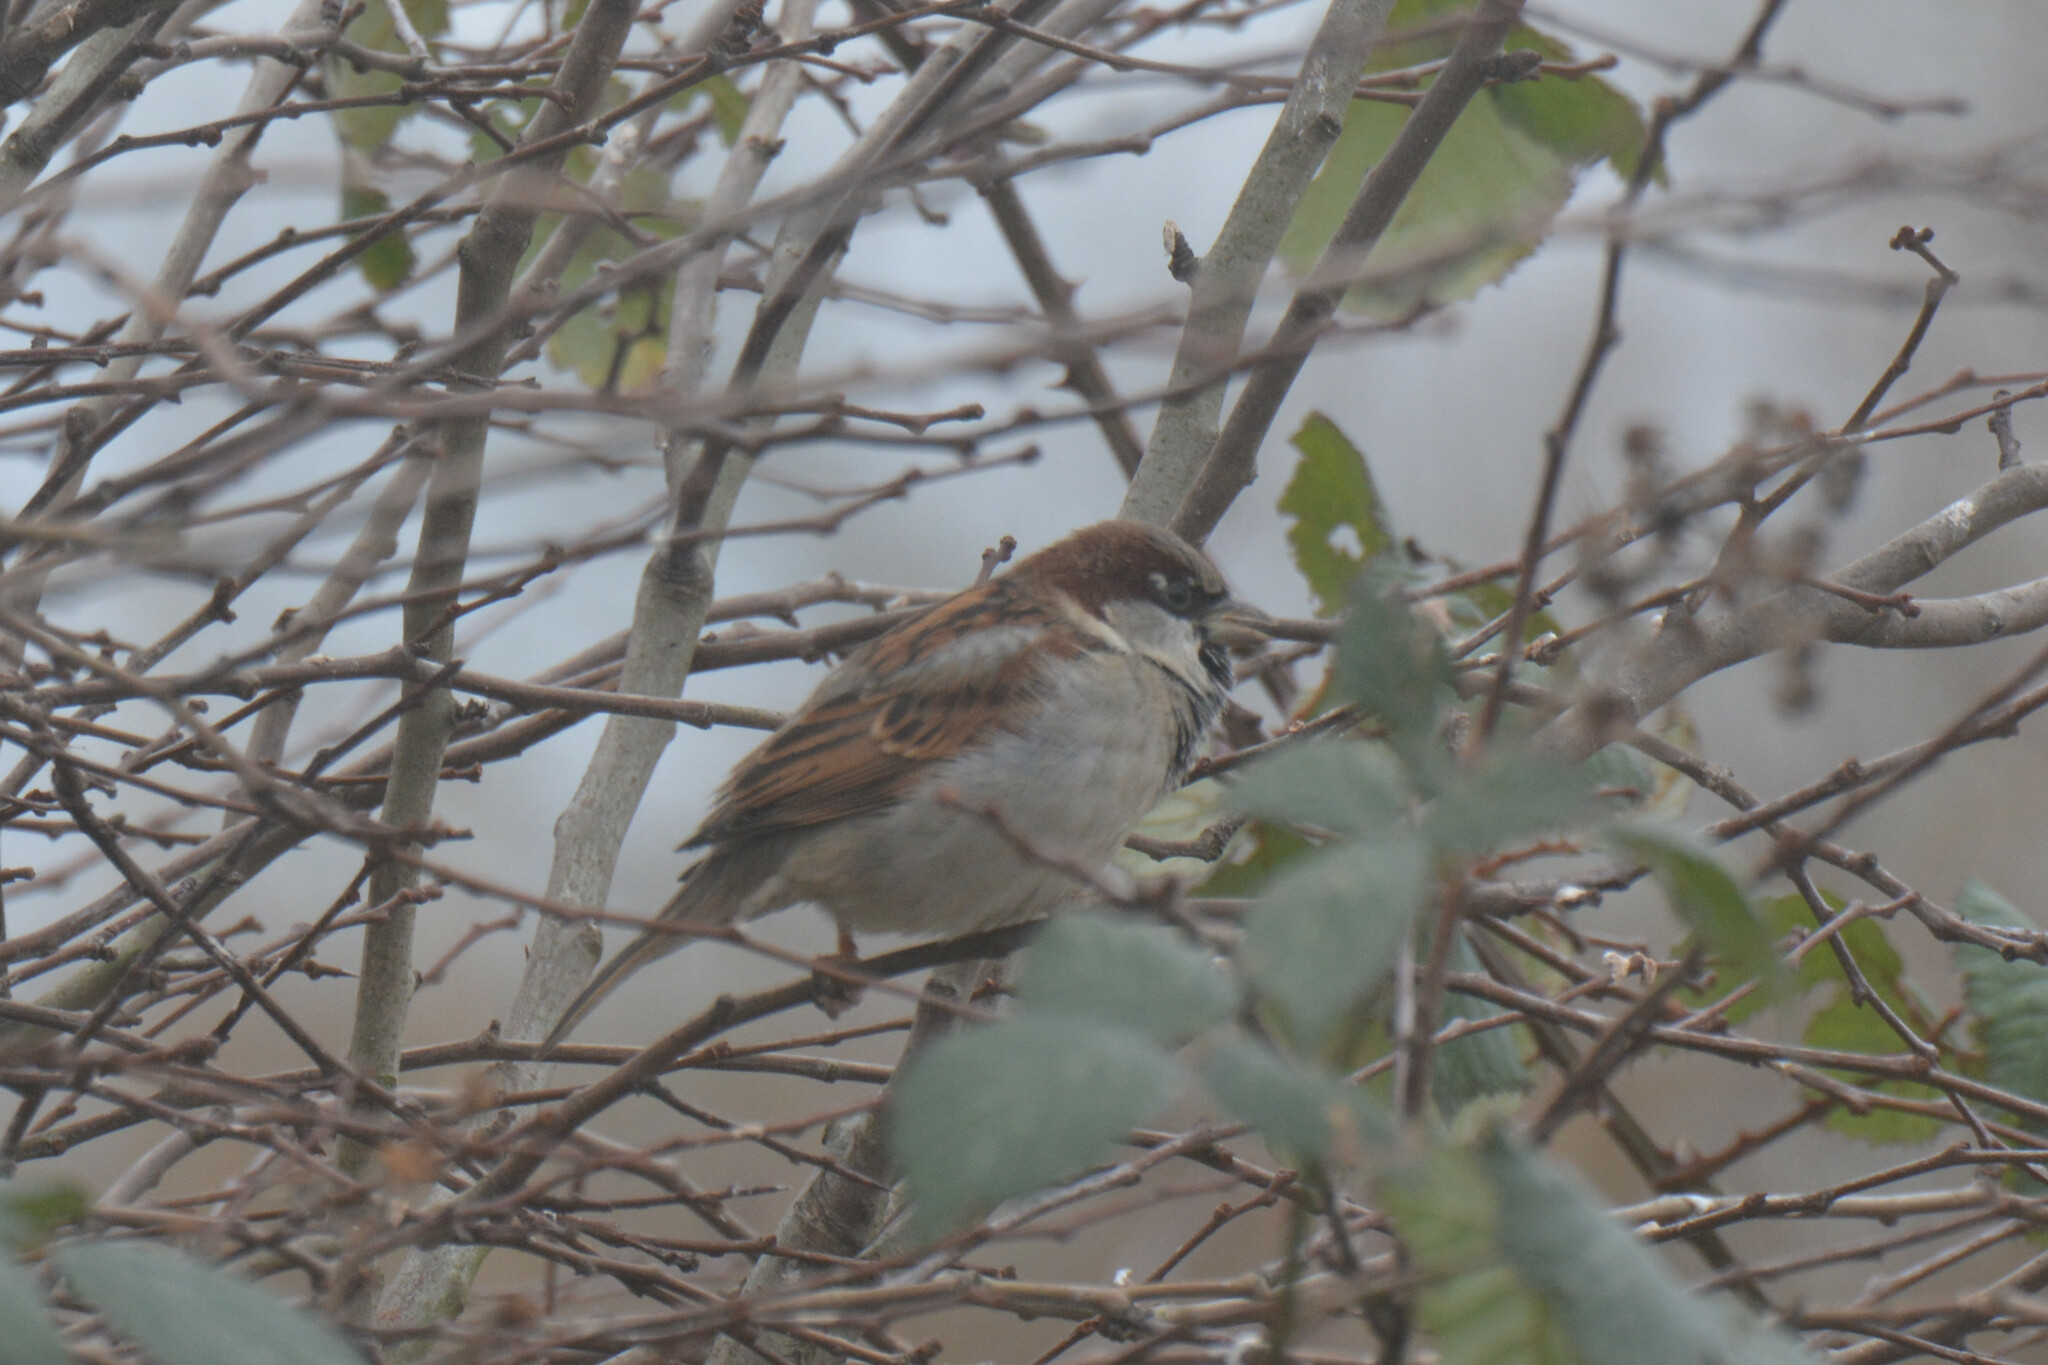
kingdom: Animalia
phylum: Chordata
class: Aves
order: Passeriformes
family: Passeridae
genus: Passer
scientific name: Passer domesticus
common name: House sparrow
